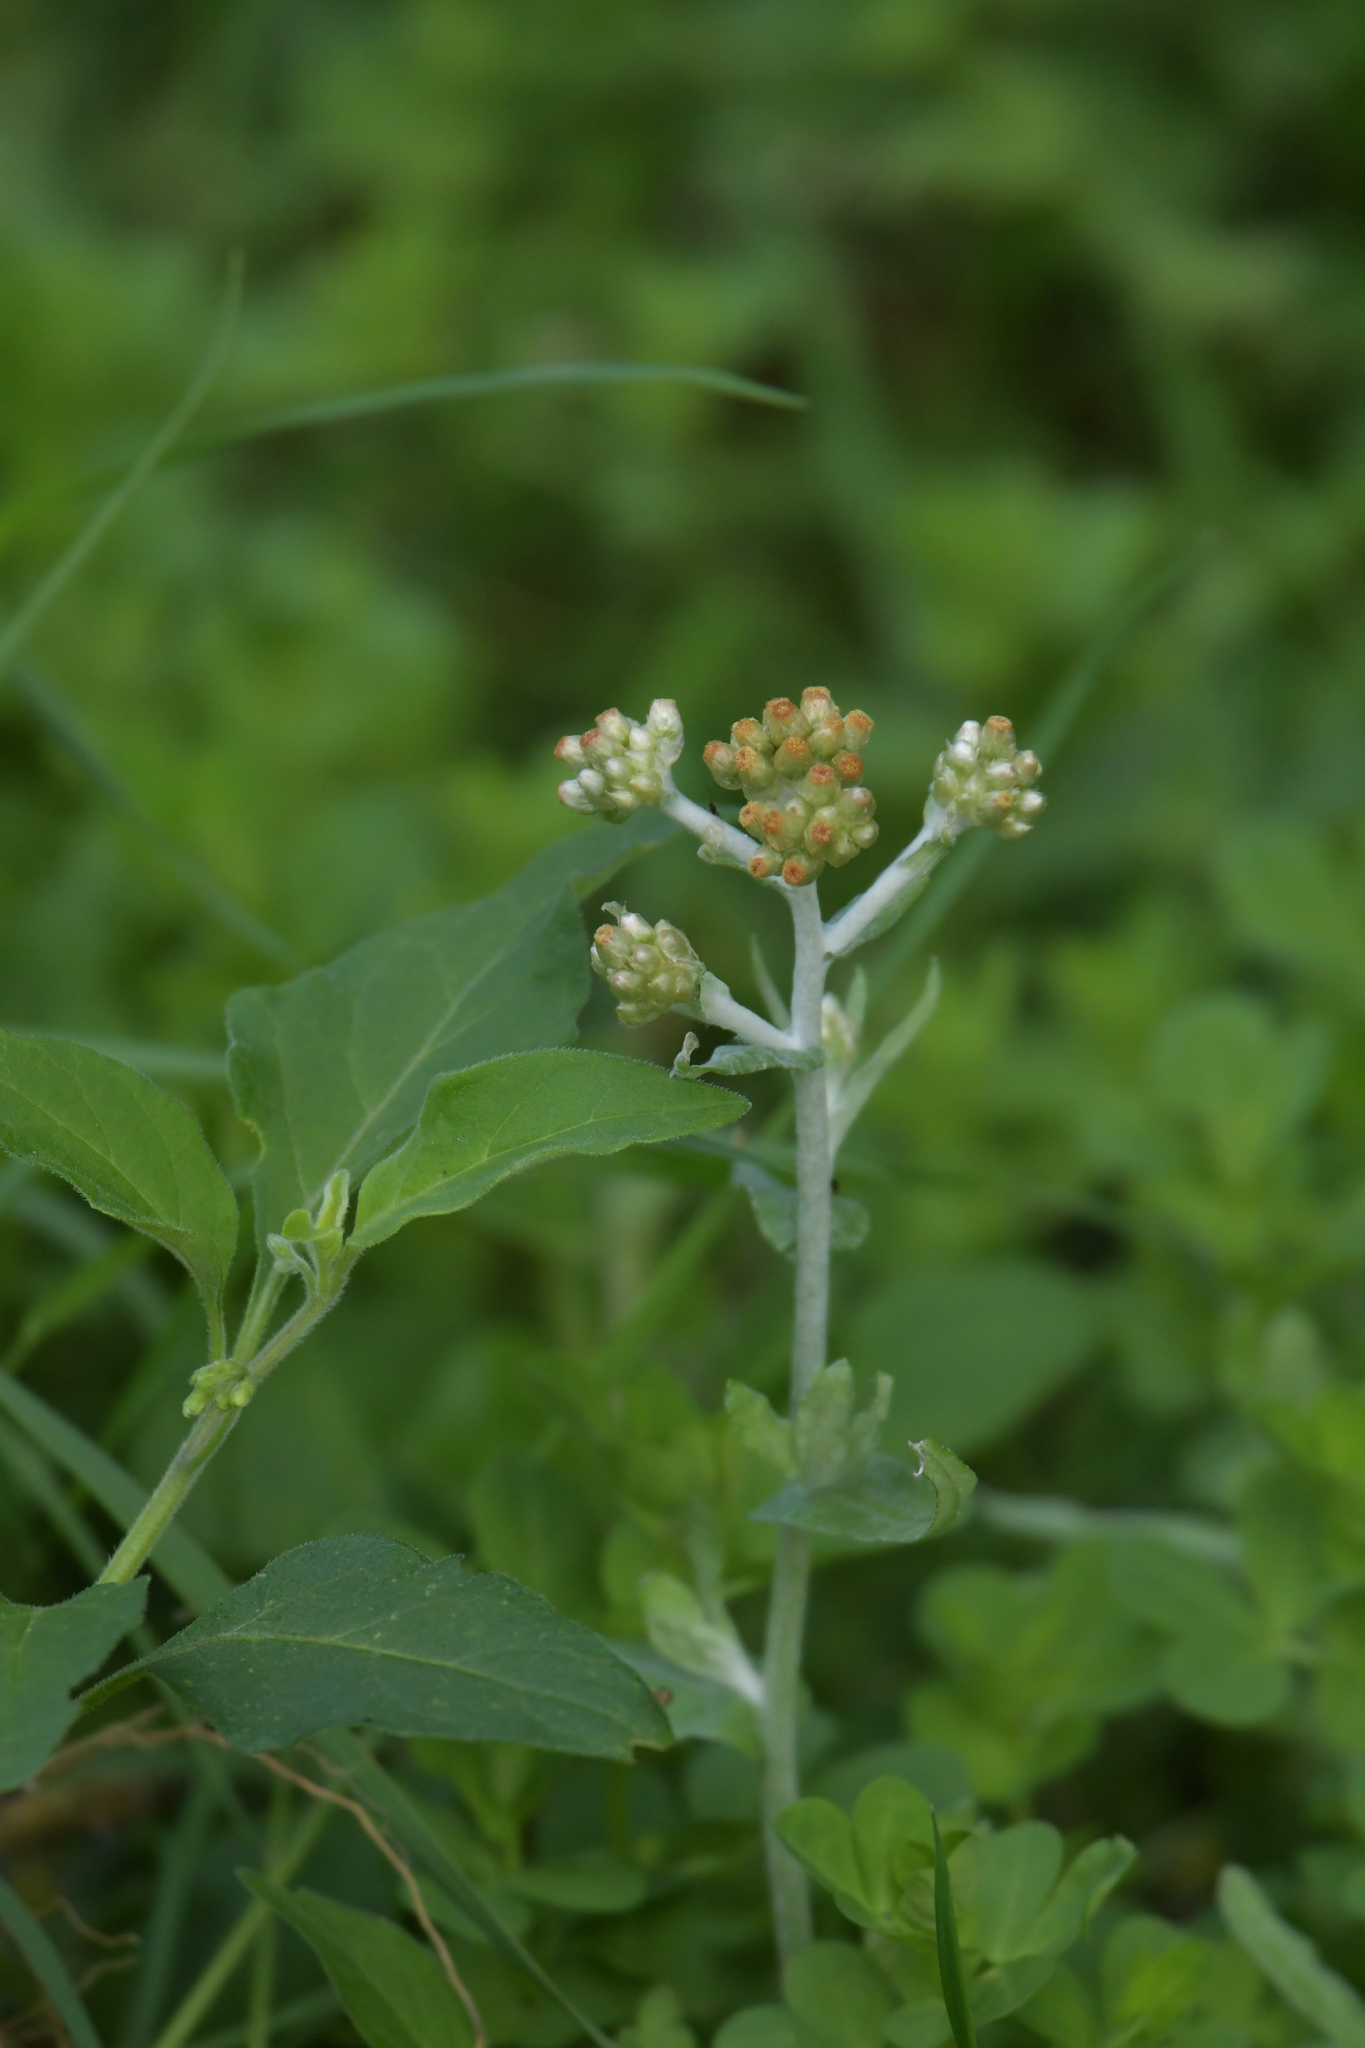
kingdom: Plantae
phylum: Tracheophyta
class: Magnoliopsida
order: Asterales
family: Asteraceae
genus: Helichrysum
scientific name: Helichrysum luteoalbum
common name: Daisy
